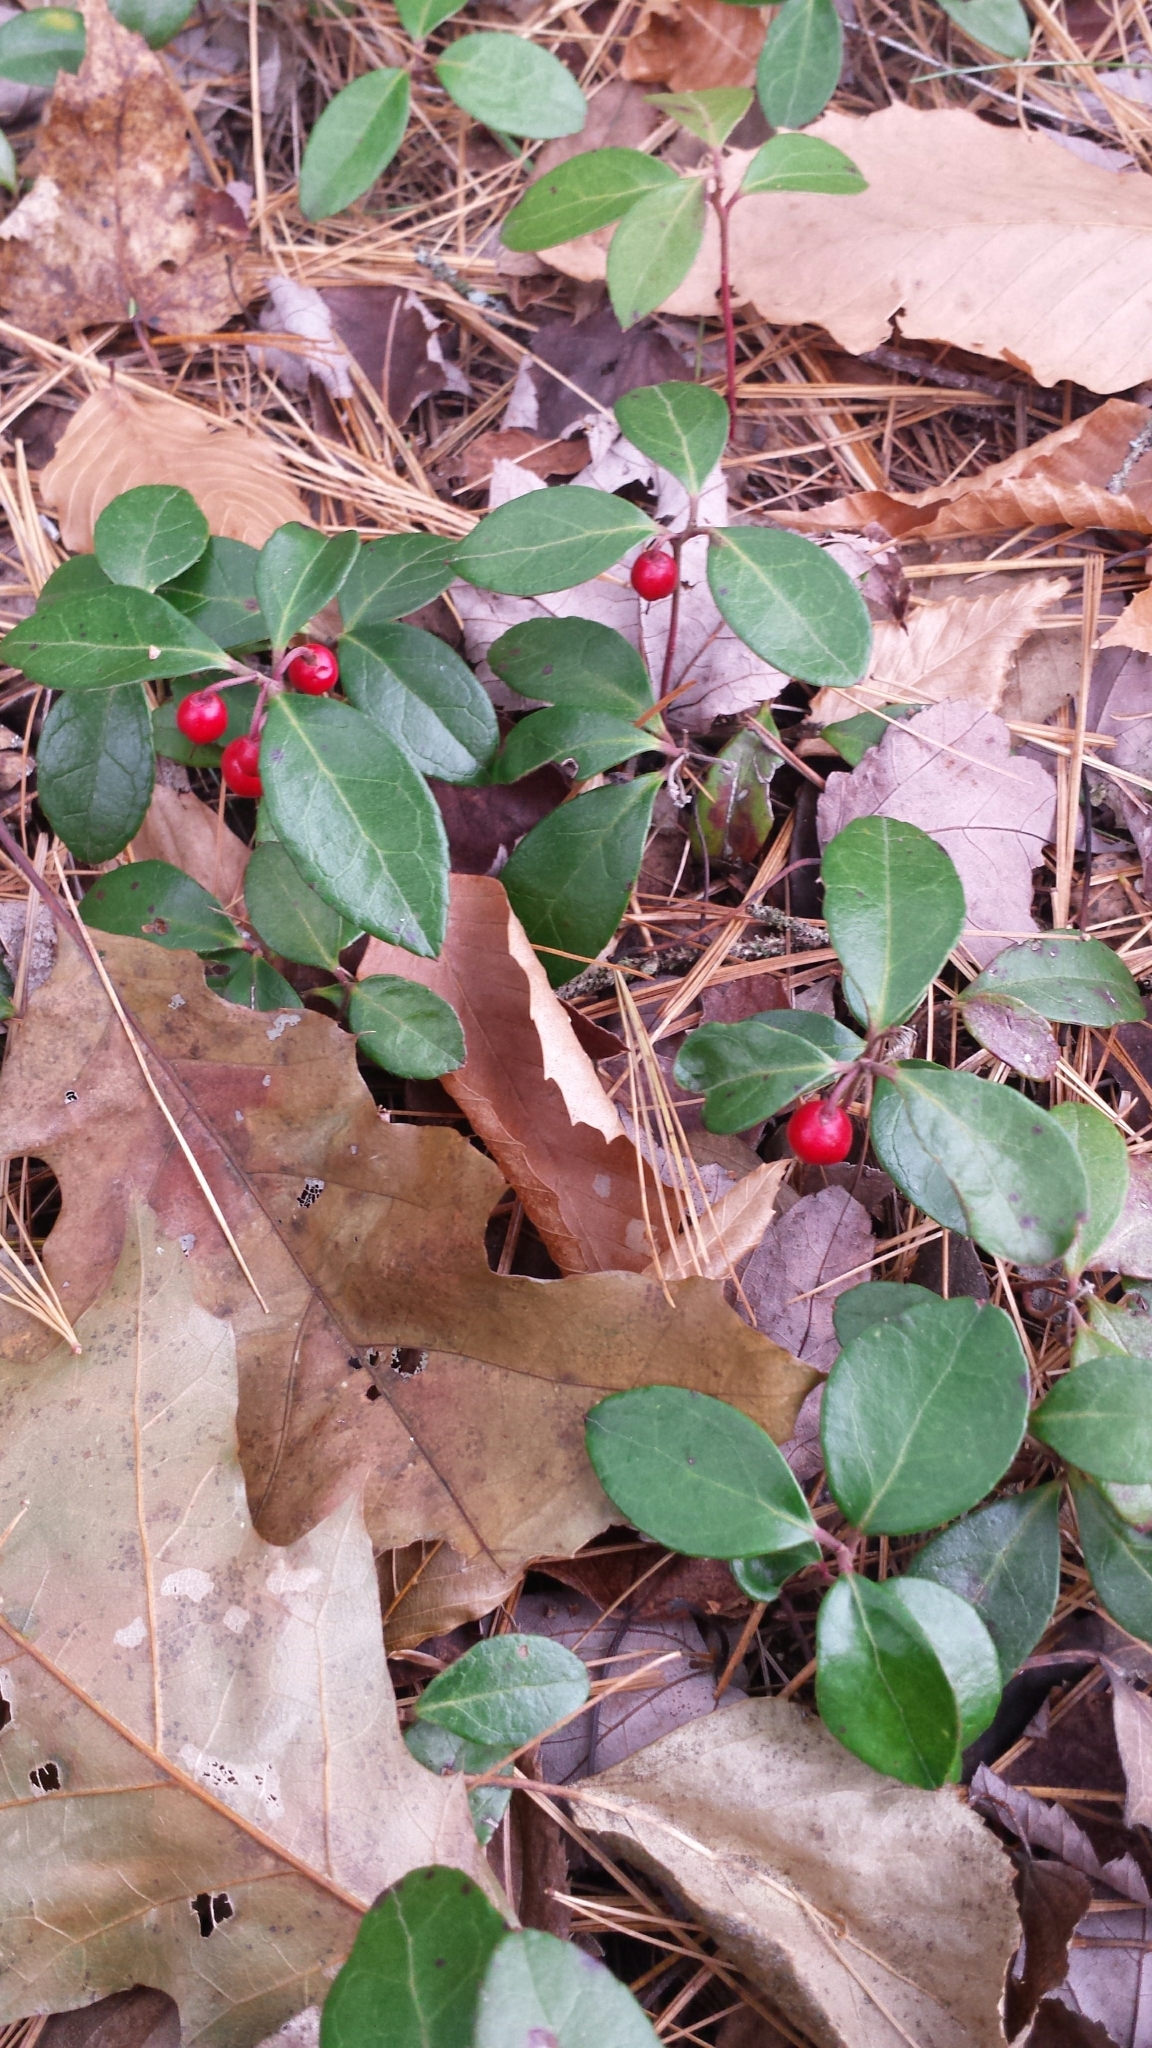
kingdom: Plantae
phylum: Tracheophyta
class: Magnoliopsida
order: Ericales
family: Ericaceae
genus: Gaultheria
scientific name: Gaultheria procumbens
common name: Checkerberry
